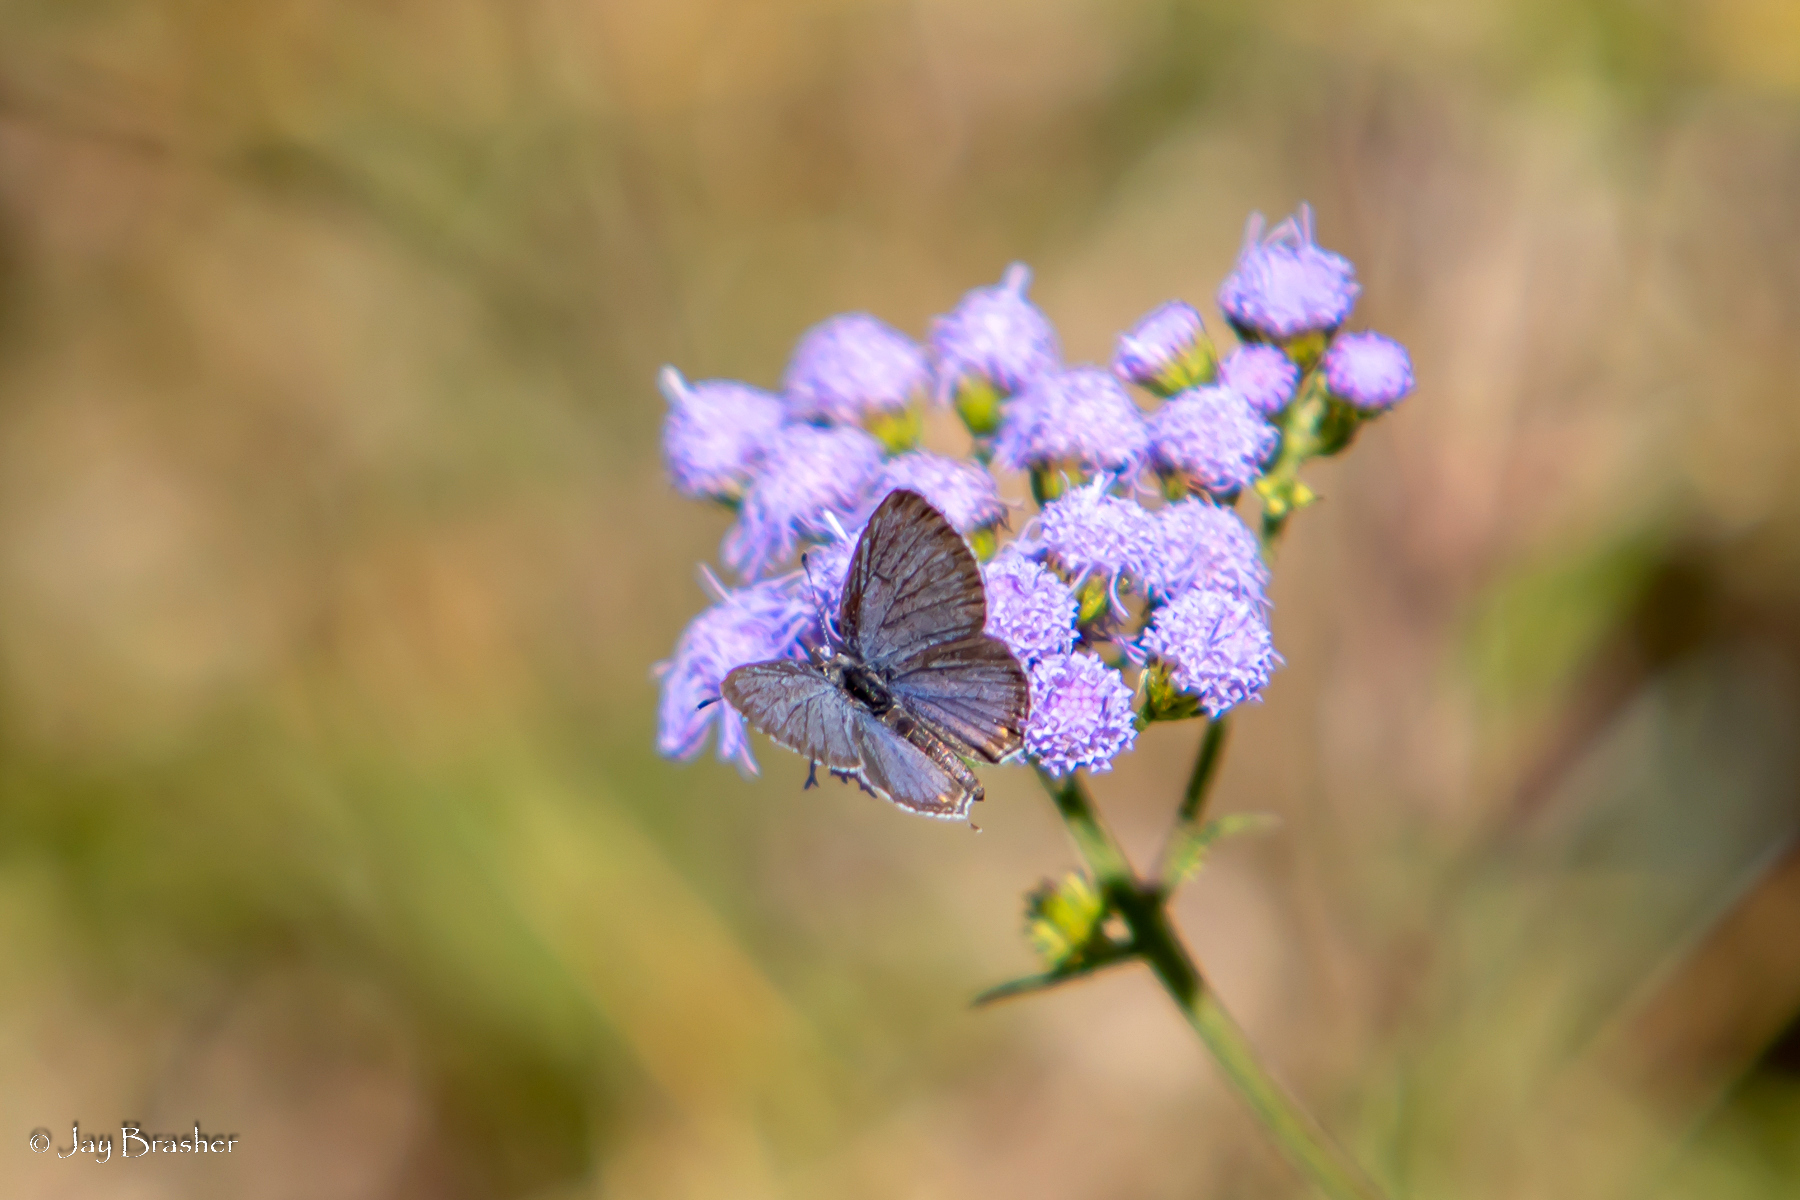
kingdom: Animalia
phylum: Arthropoda
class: Insecta
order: Lepidoptera
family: Lycaenidae
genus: Elkalyce
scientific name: Elkalyce comyntas
